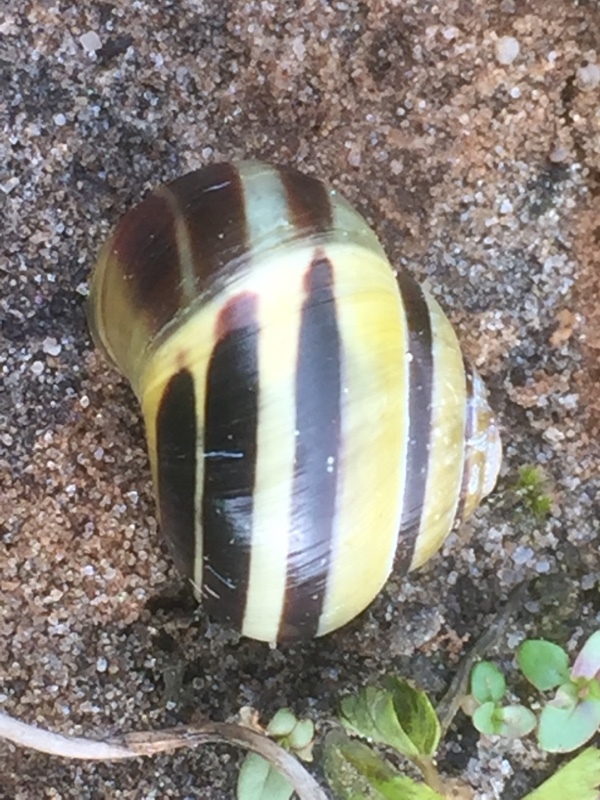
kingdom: Animalia
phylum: Mollusca
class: Gastropoda
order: Stylommatophora
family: Helicidae
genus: Cepaea
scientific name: Cepaea nemoralis
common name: Grovesnail
